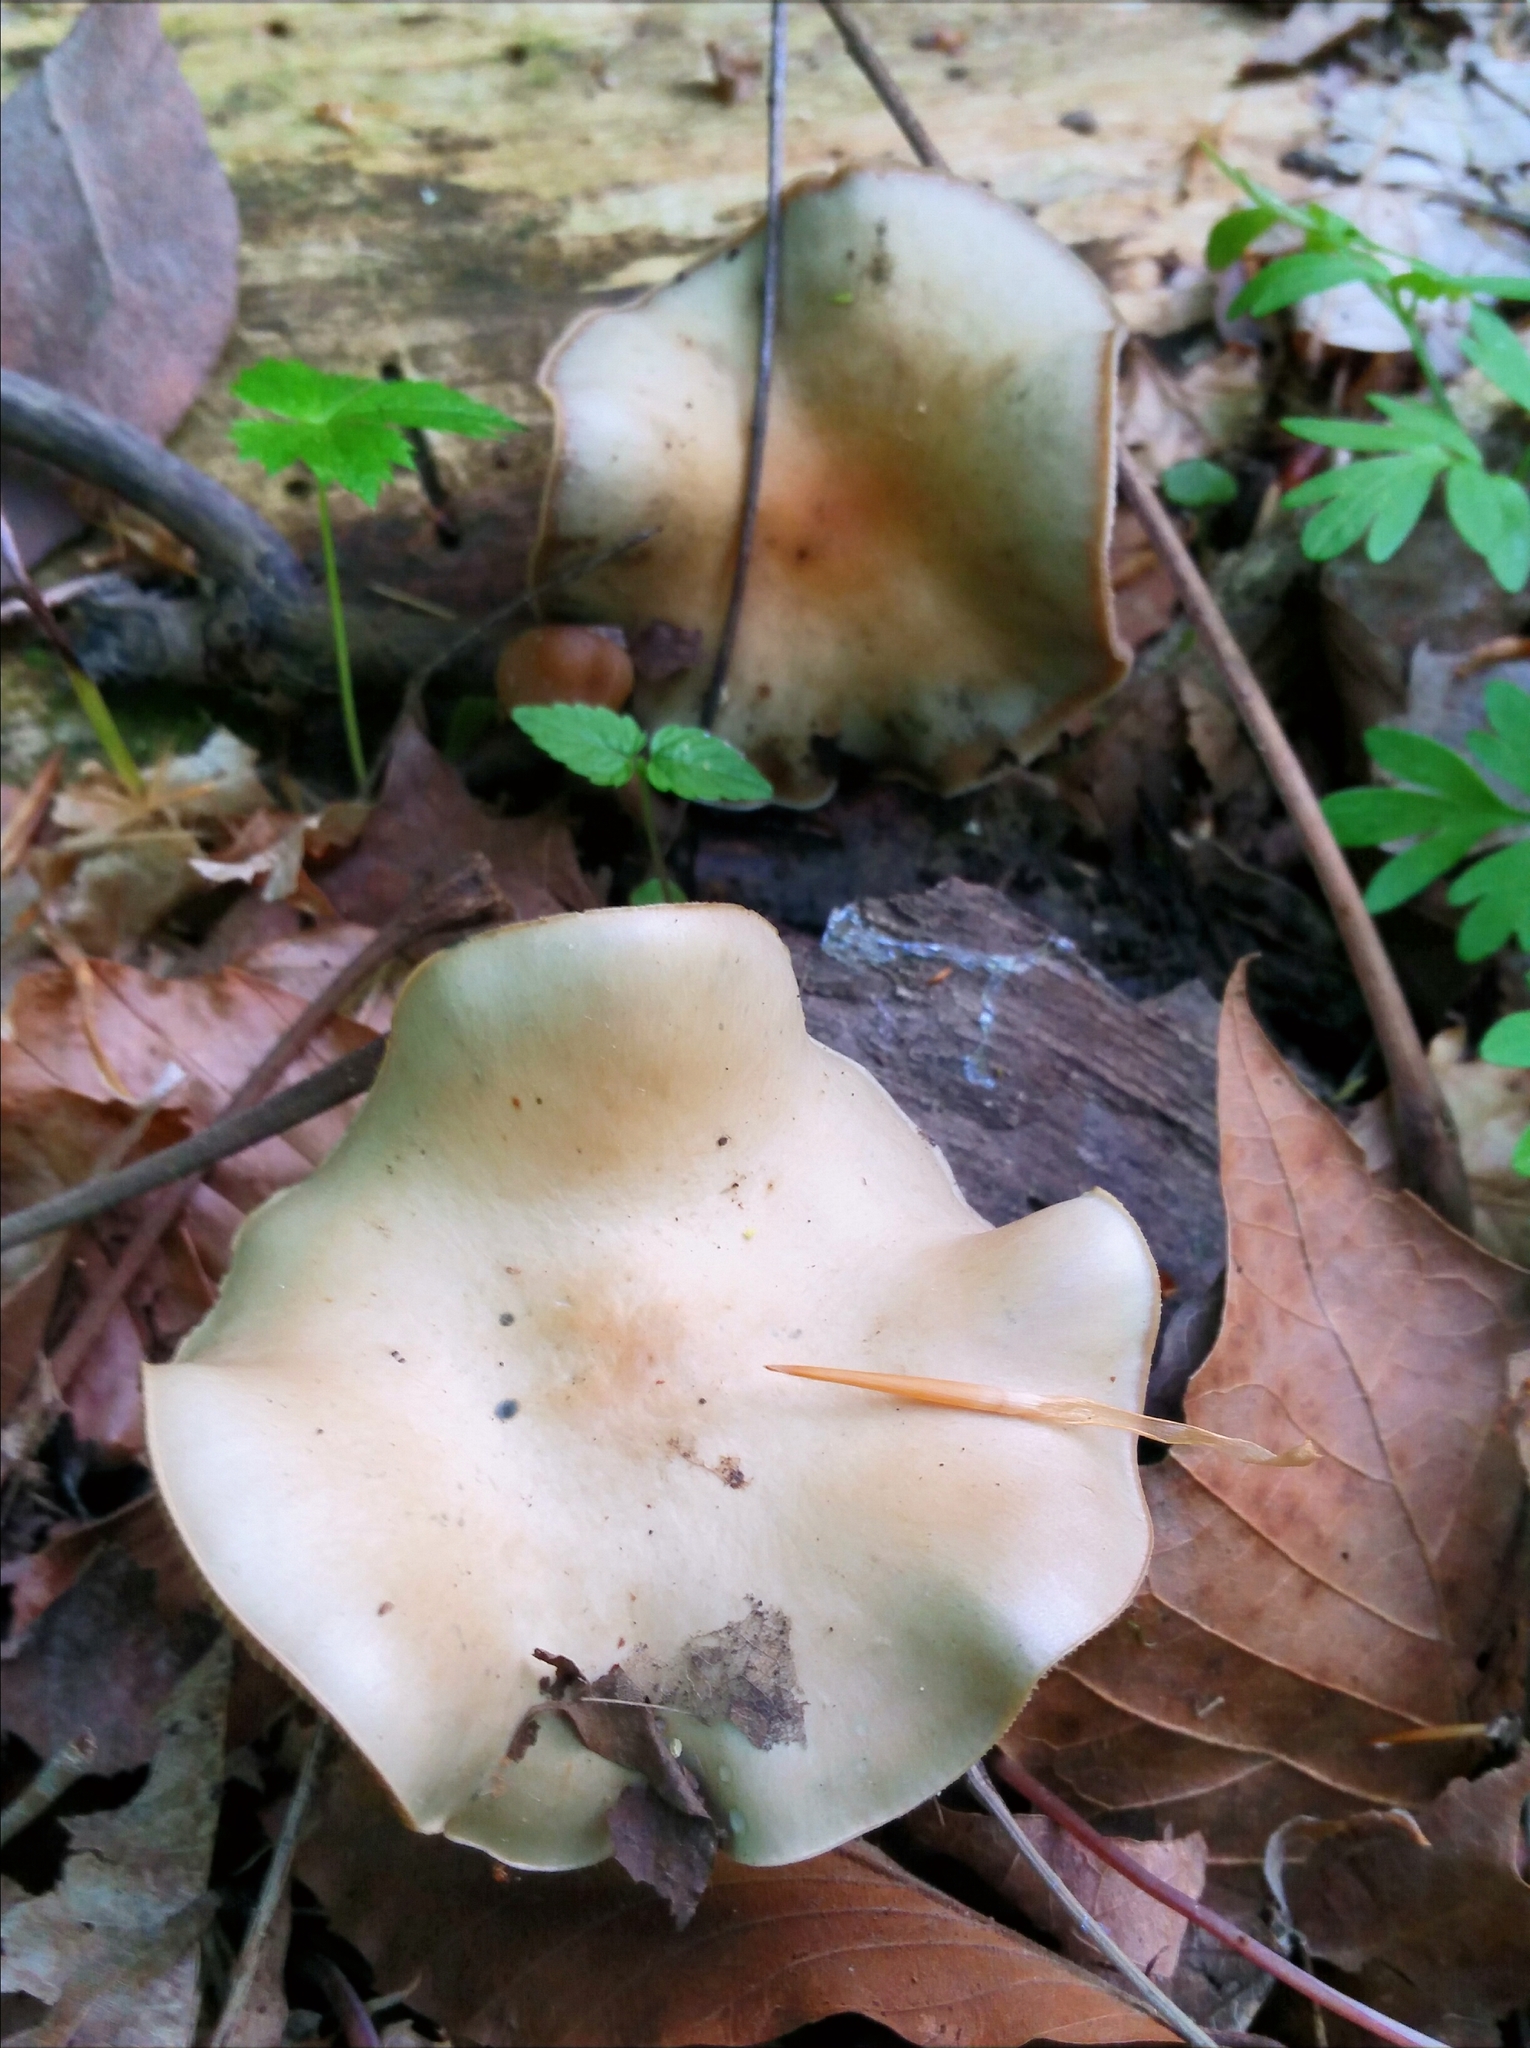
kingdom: Fungi
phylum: Basidiomycota
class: Agaricomycetes
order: Agaricales
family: Hymenogastraceae
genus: Psilocybe
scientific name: Psilocybe ovoideocystidiata
